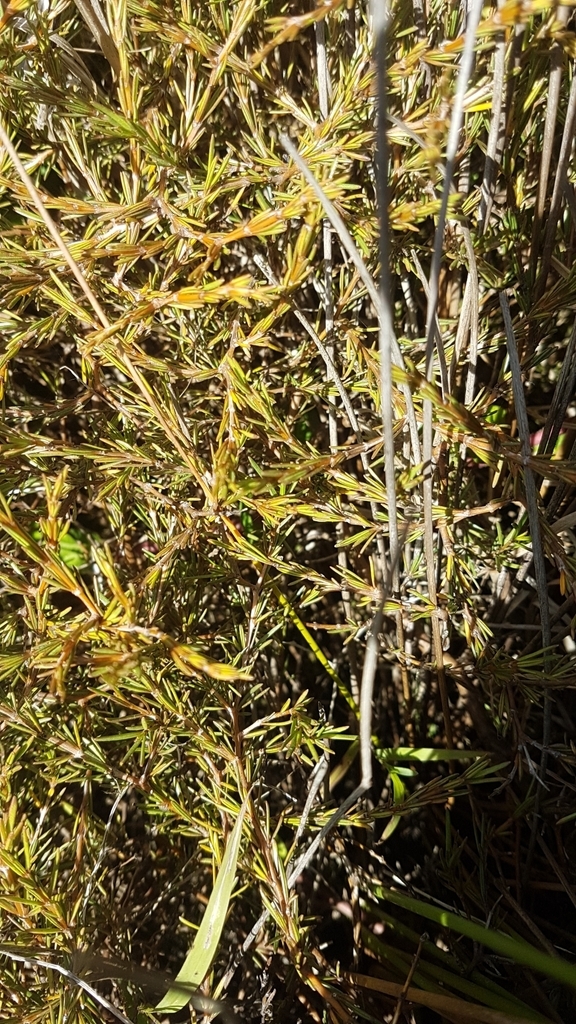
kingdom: Plantae
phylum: Tracheophyta
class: Magnoliopsida
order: Gentianales
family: Rubiaceae
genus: Coprosma
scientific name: Coprosma acerosa
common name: Sand coprosma
